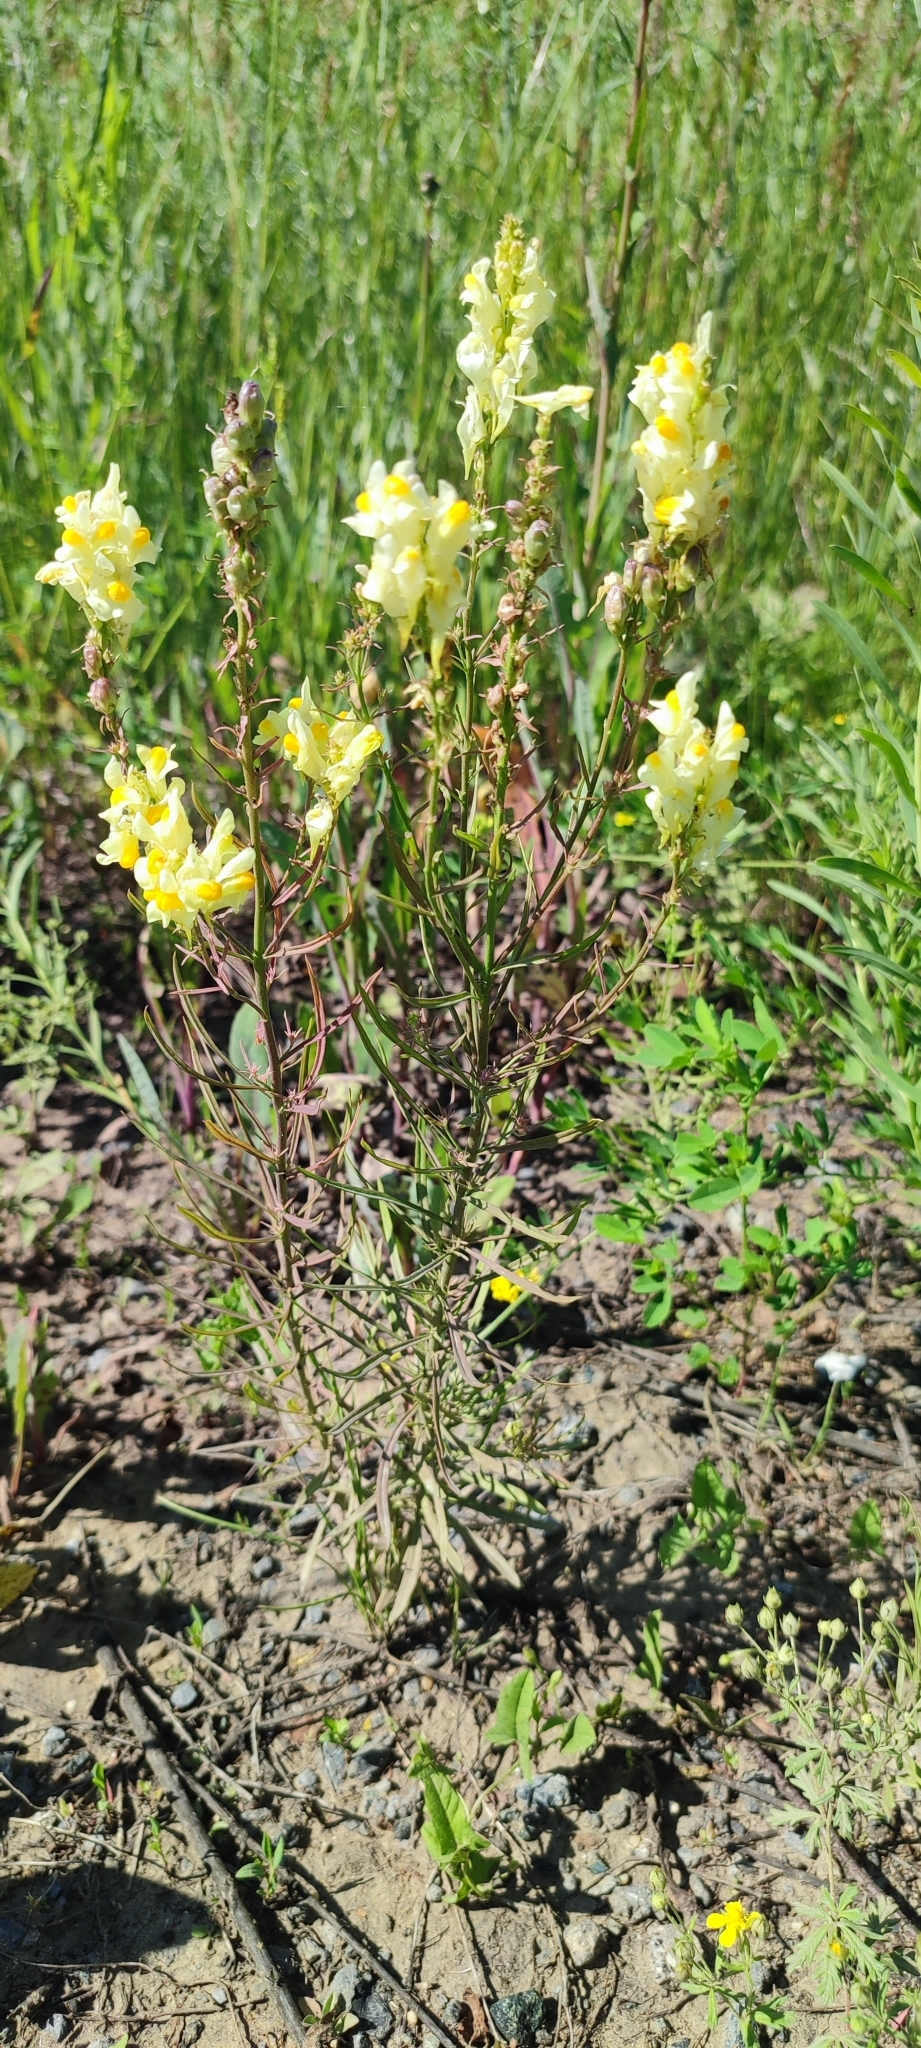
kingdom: Plantae
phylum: Tracheophyta
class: Magnoliopsida
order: Lamiales
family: Plantaginaceae
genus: Linaria
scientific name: Linaria vulgaris
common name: Butter and eggs
